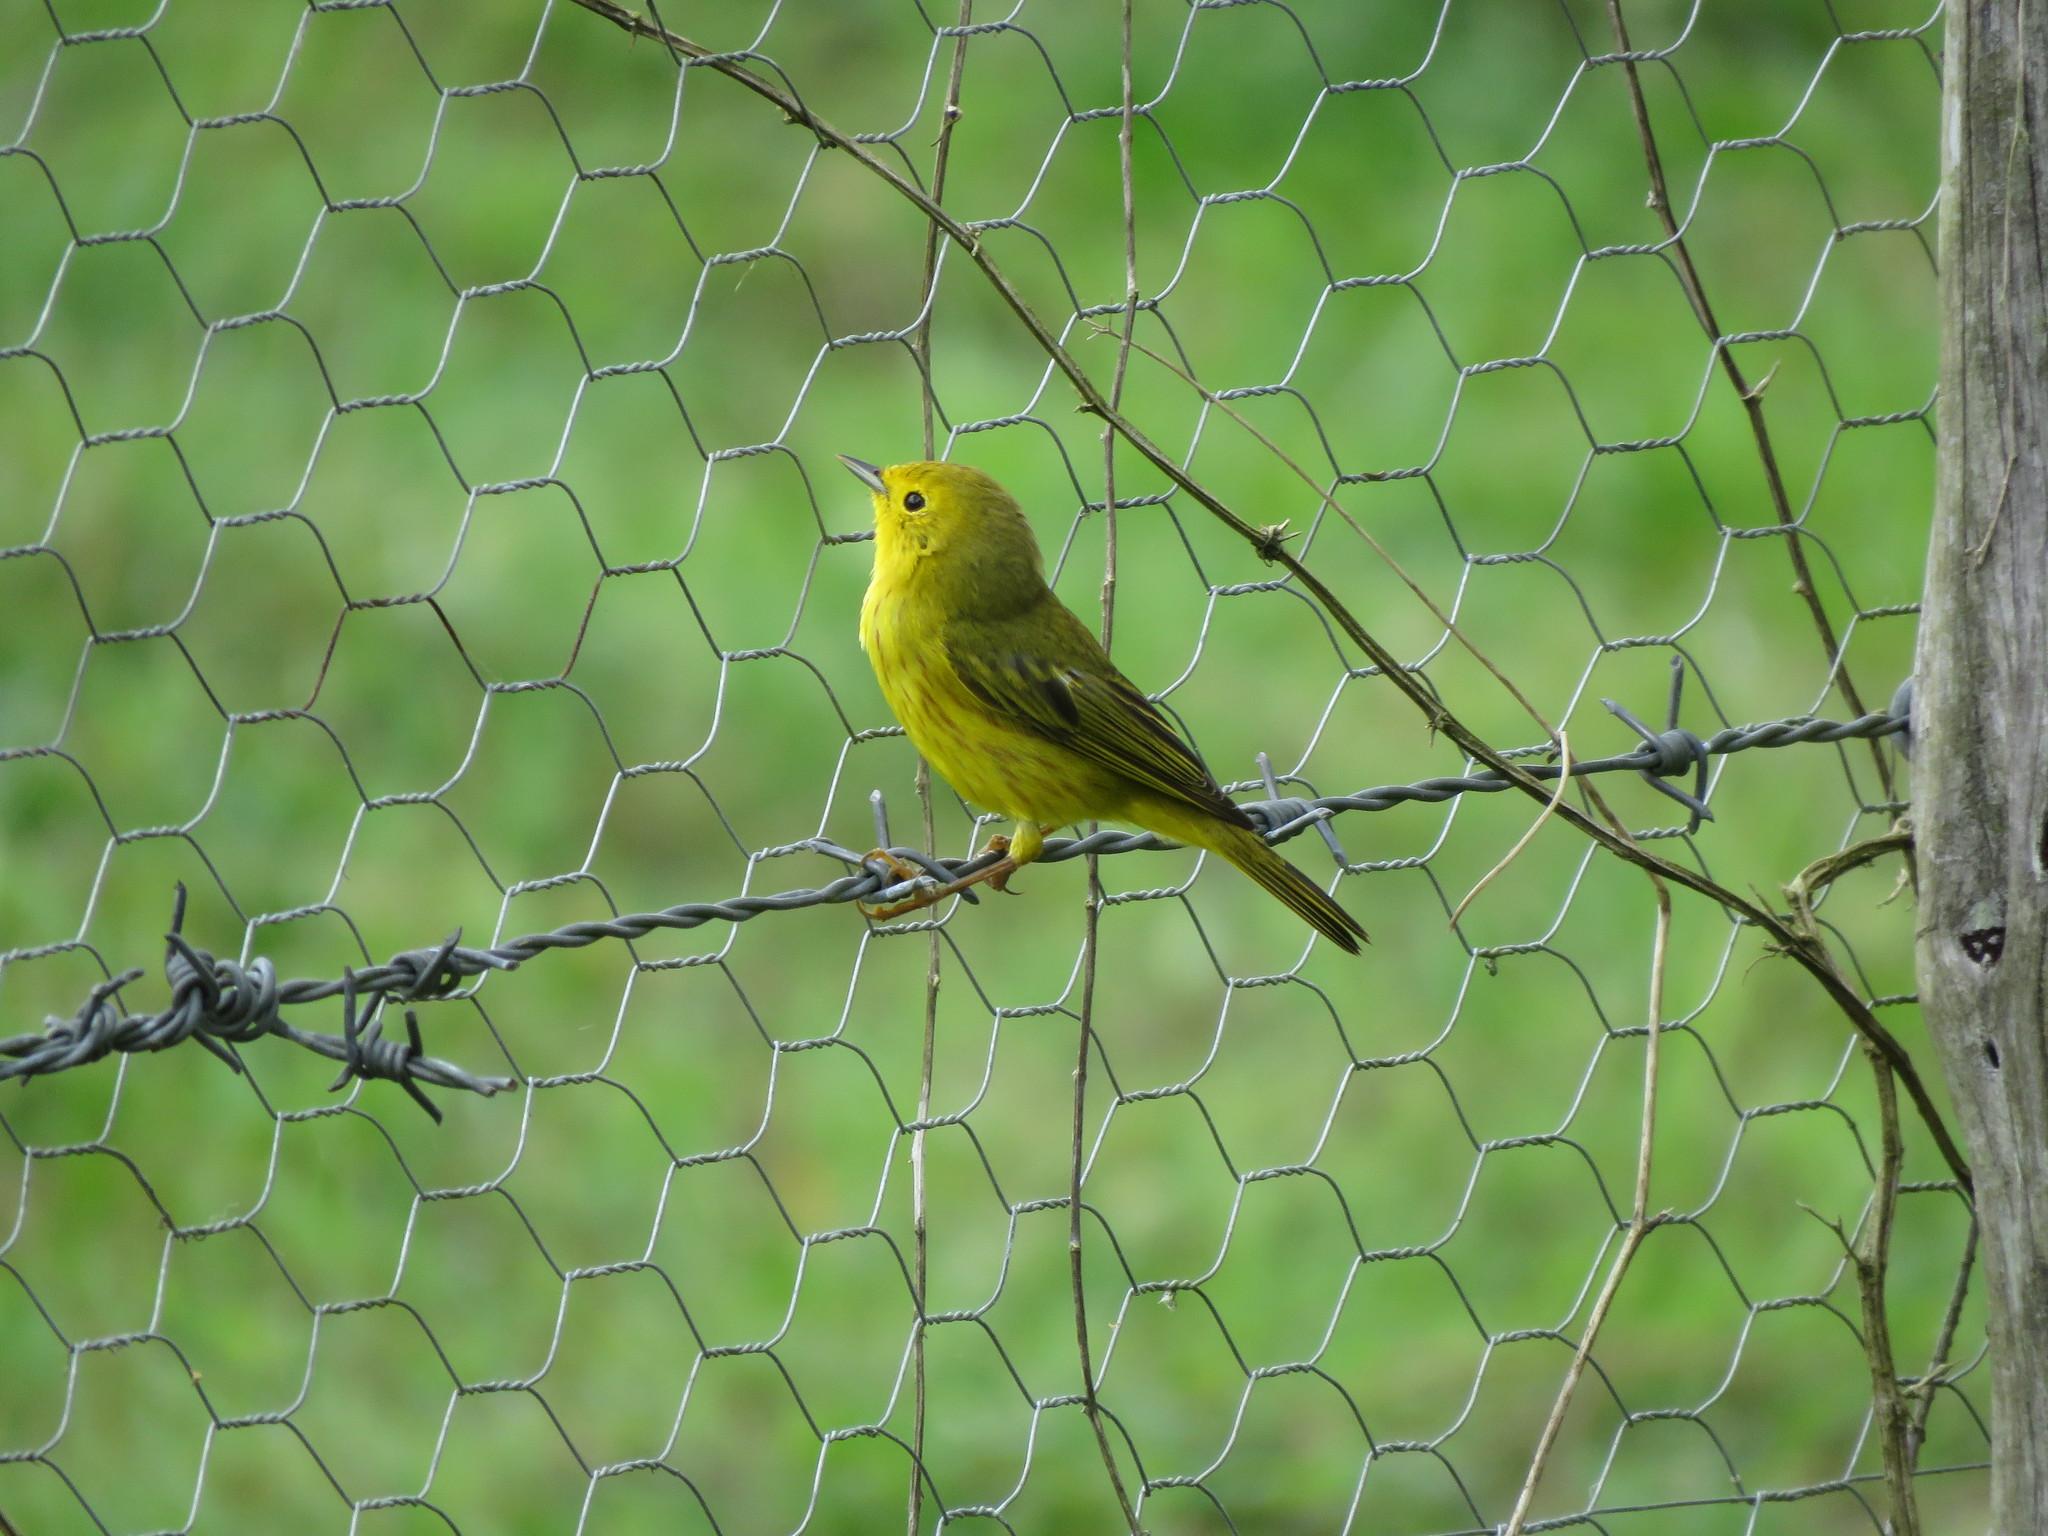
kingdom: Animalia
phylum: Chordata
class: Aves
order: Passeriformes
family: Parulidae
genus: Setophaga
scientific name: Setophaga petechia
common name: Yellow warbler
